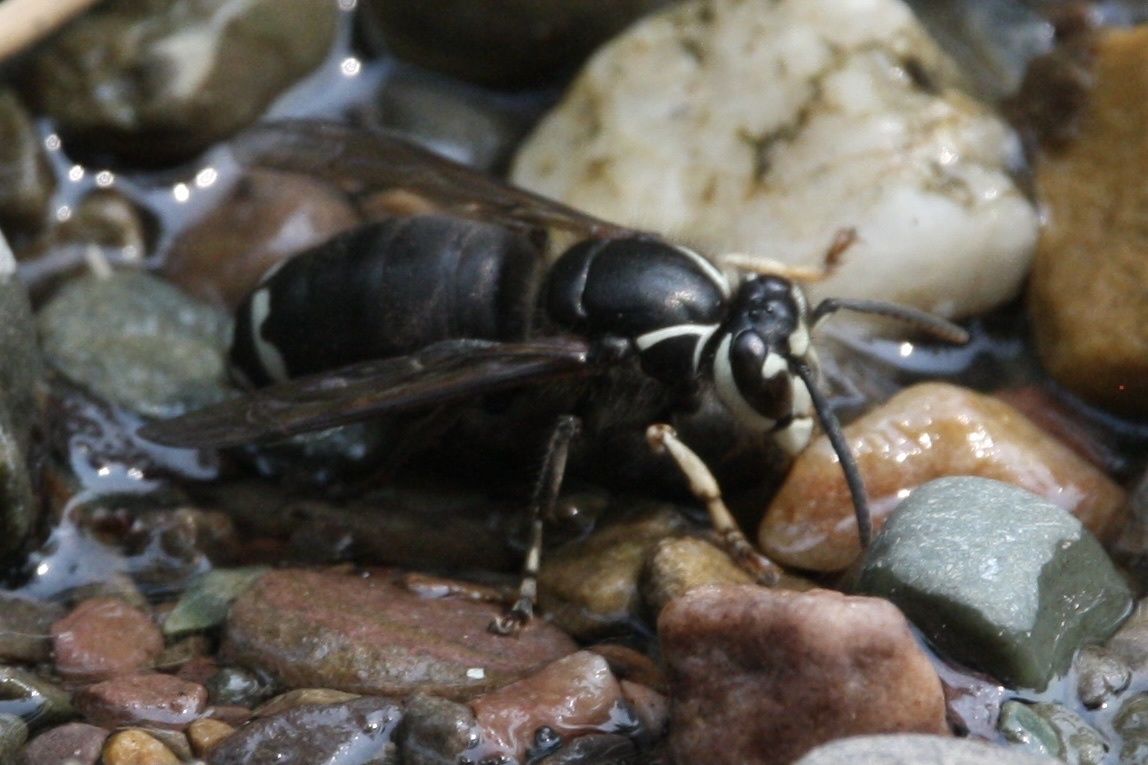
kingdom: Animalia
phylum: Arthropoda
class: Insecta
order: Hymenoptera
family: Vespidae
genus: Dolichovespula
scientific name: Dolichovespula maculata
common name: Bald-faced hornet
